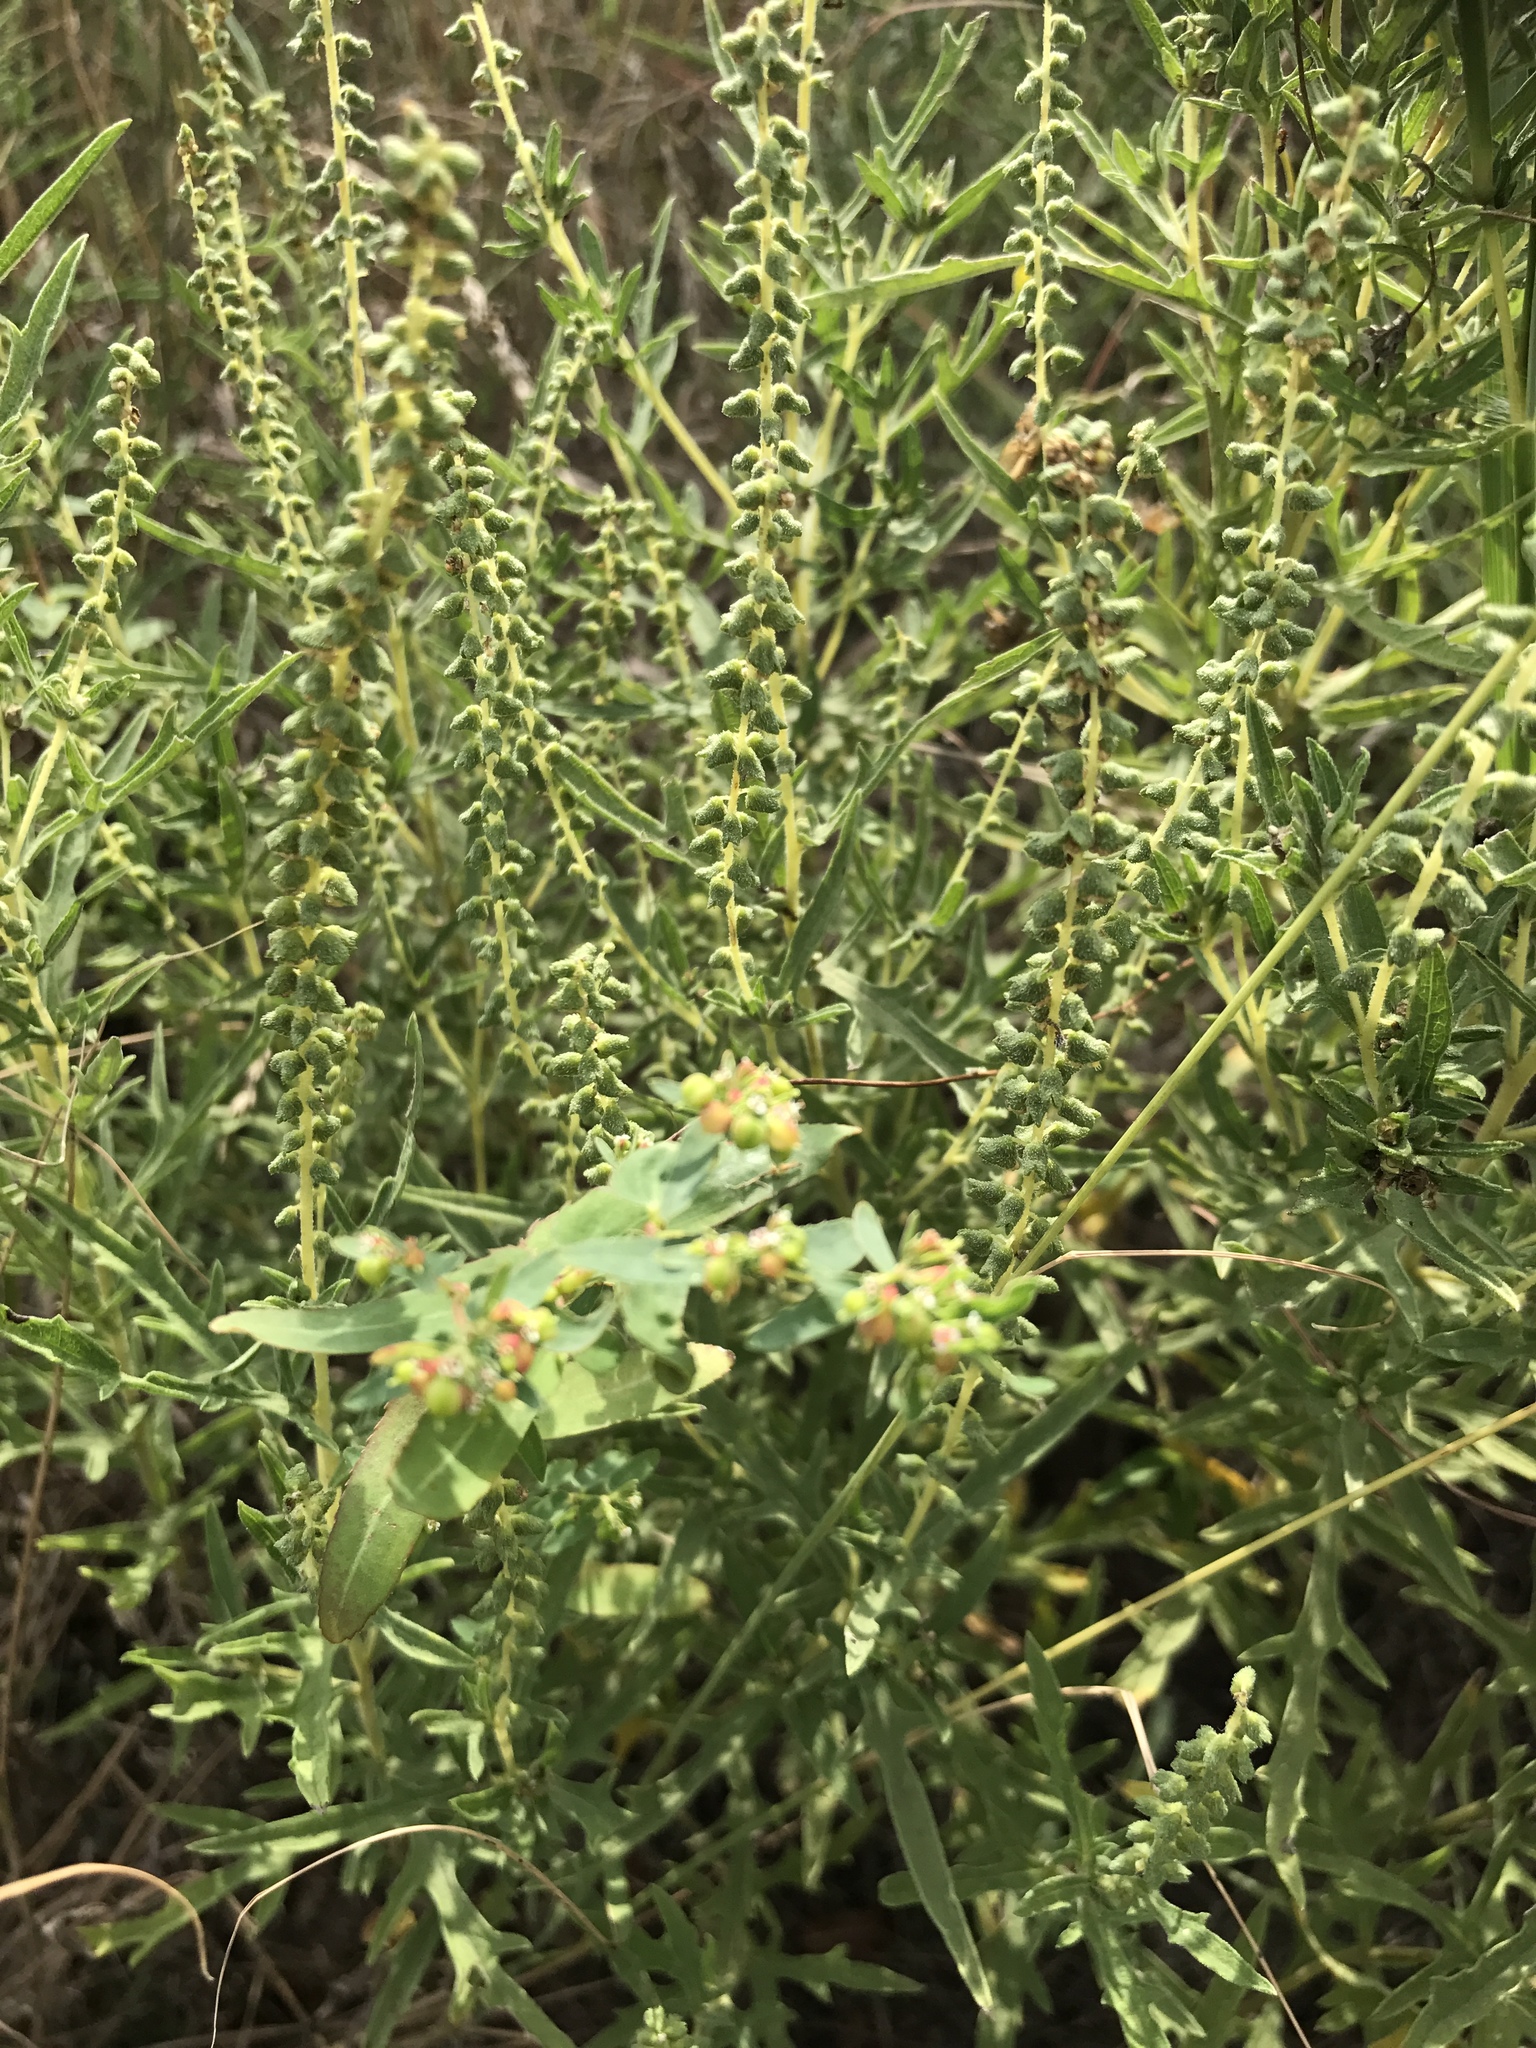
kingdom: Plantae
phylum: Tracheophyta
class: Magnoliopsida
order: Asterales
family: Asteraceae
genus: Ambrosia
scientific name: Ambrosia psilostachya
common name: Perennial ragweed
